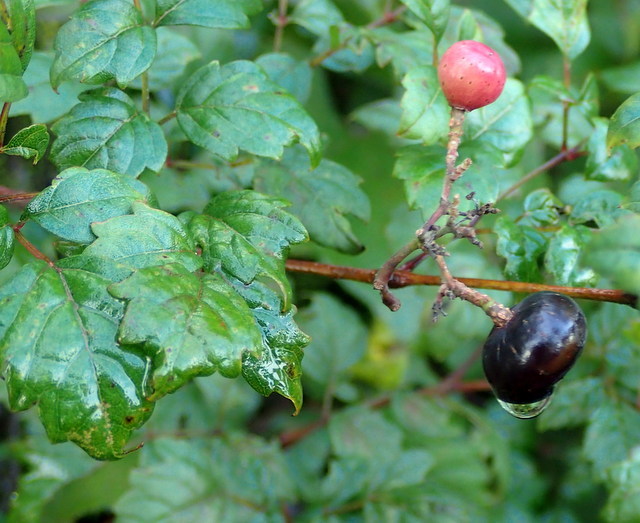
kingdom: Plantae
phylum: Tracheophyta
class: Magnoliopsida
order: Vitales
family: Vitaceae
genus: Nekemias
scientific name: Nekemias arborea
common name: Peppervine
